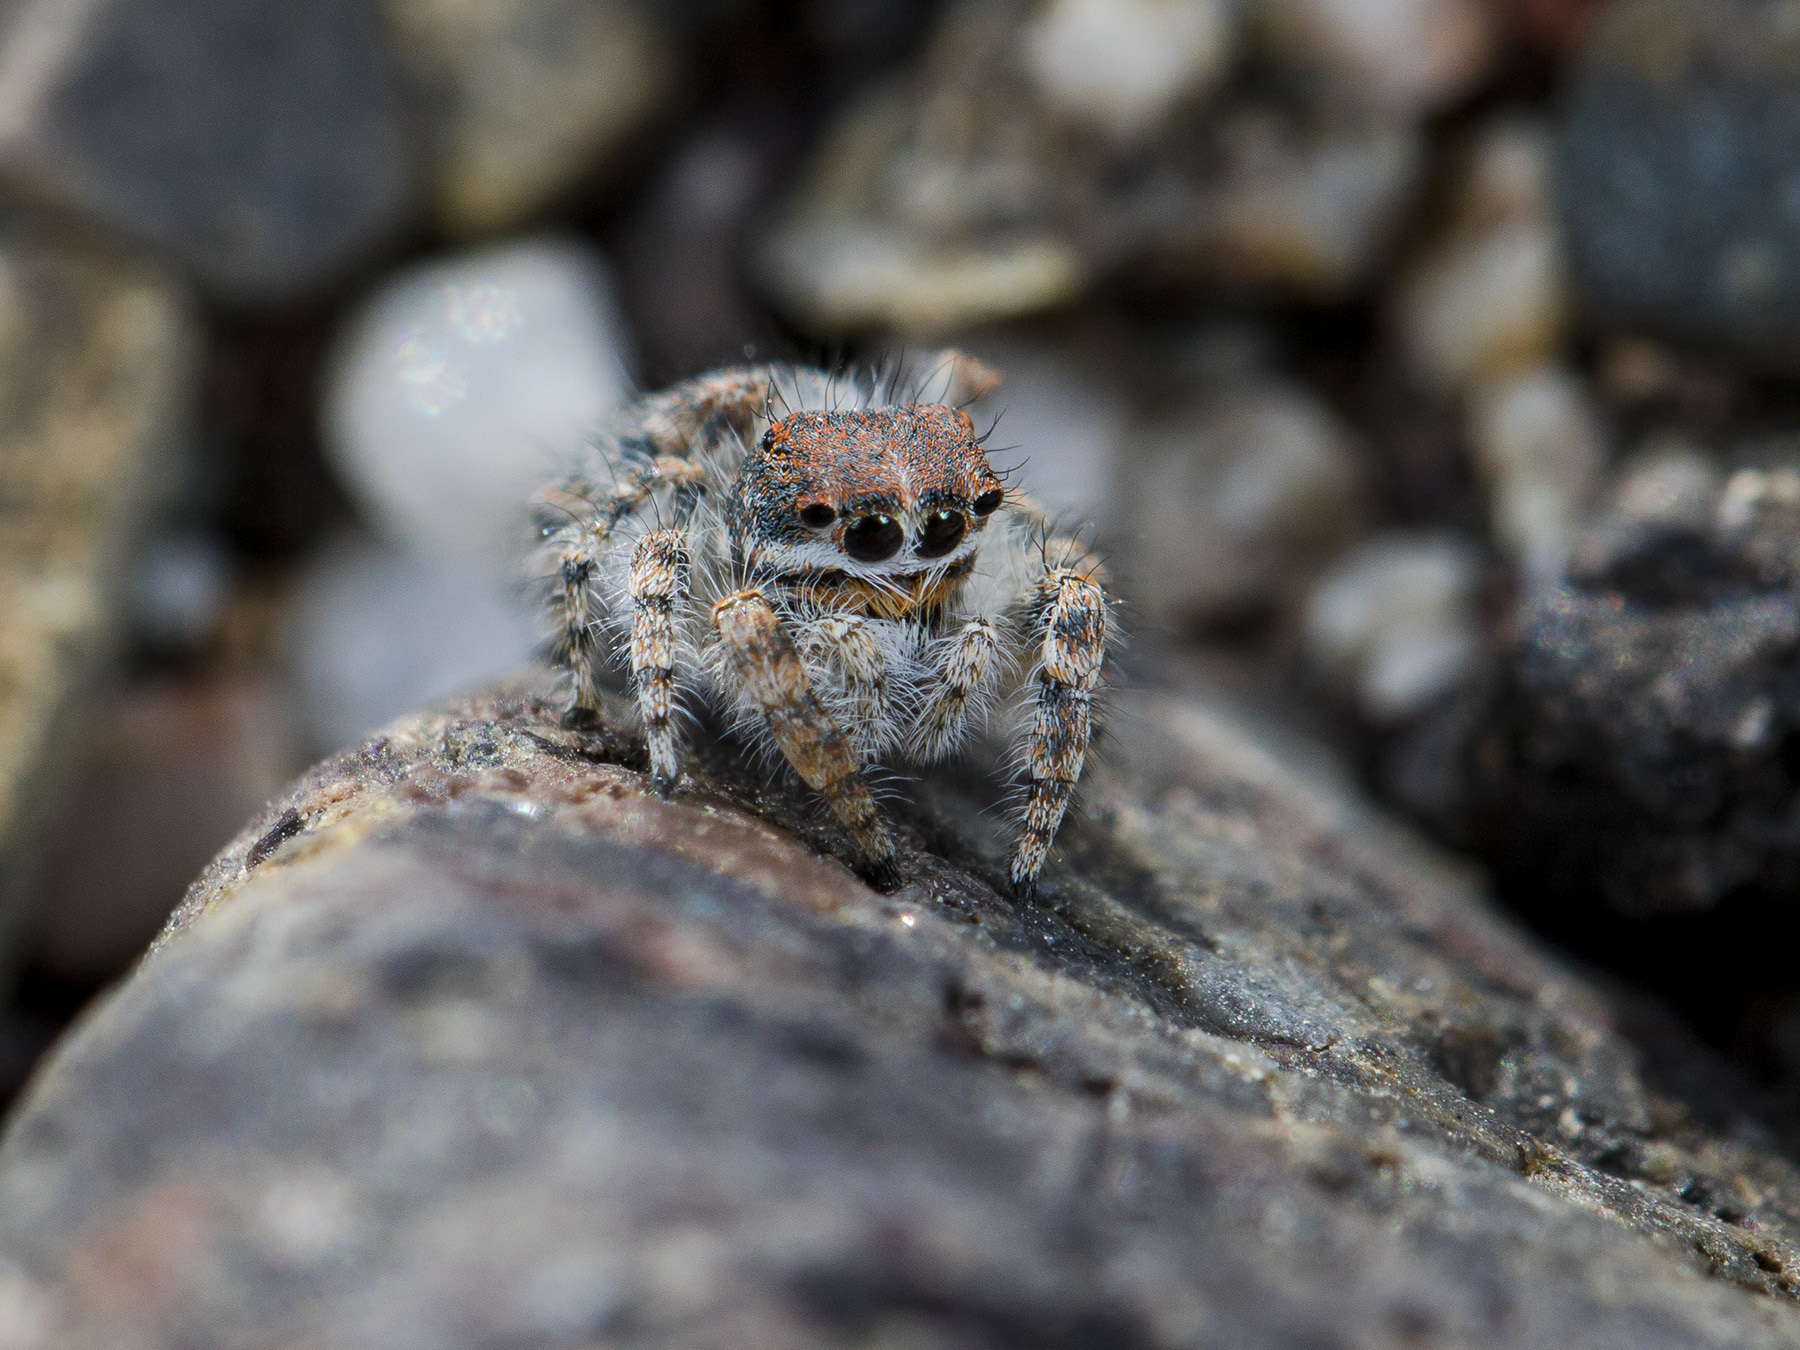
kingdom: Animalia
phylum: Arthropoda
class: Arachnida
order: Araneae
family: Salticidae
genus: Yllenus
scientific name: Yllenus zyuzini
